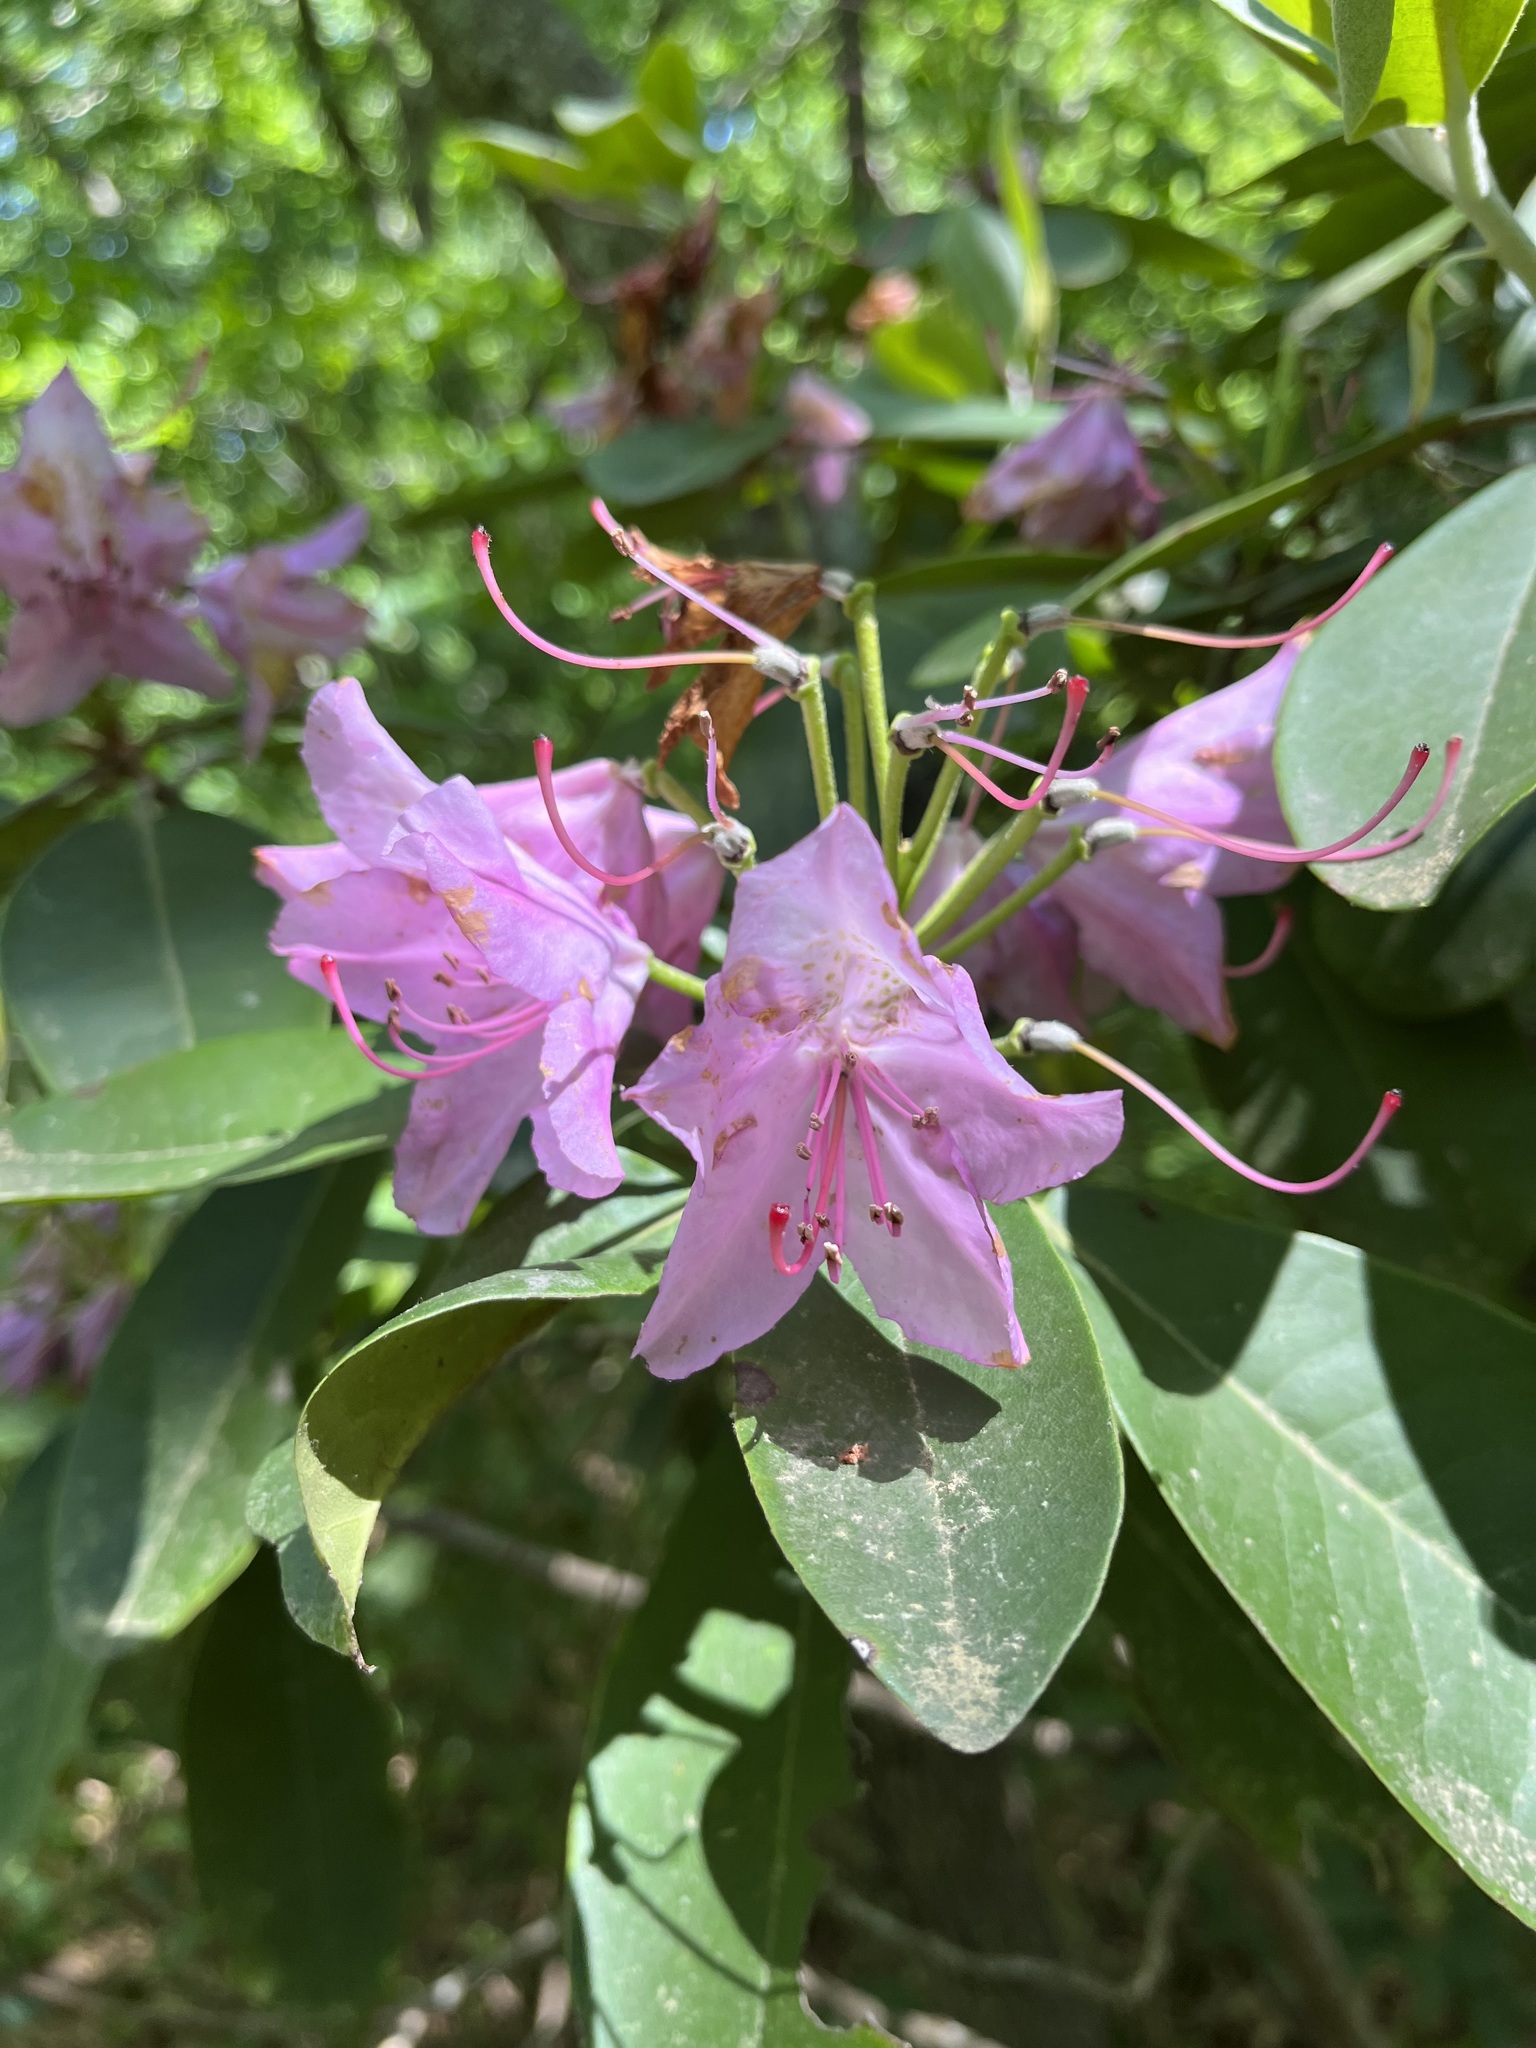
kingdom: Plantae
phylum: Tracheophyta
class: Magnoliopsida
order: Ericales
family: Ericaceae
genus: Rhododendron
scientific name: Rhododendron catawbiense
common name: Catawba rhododendron
